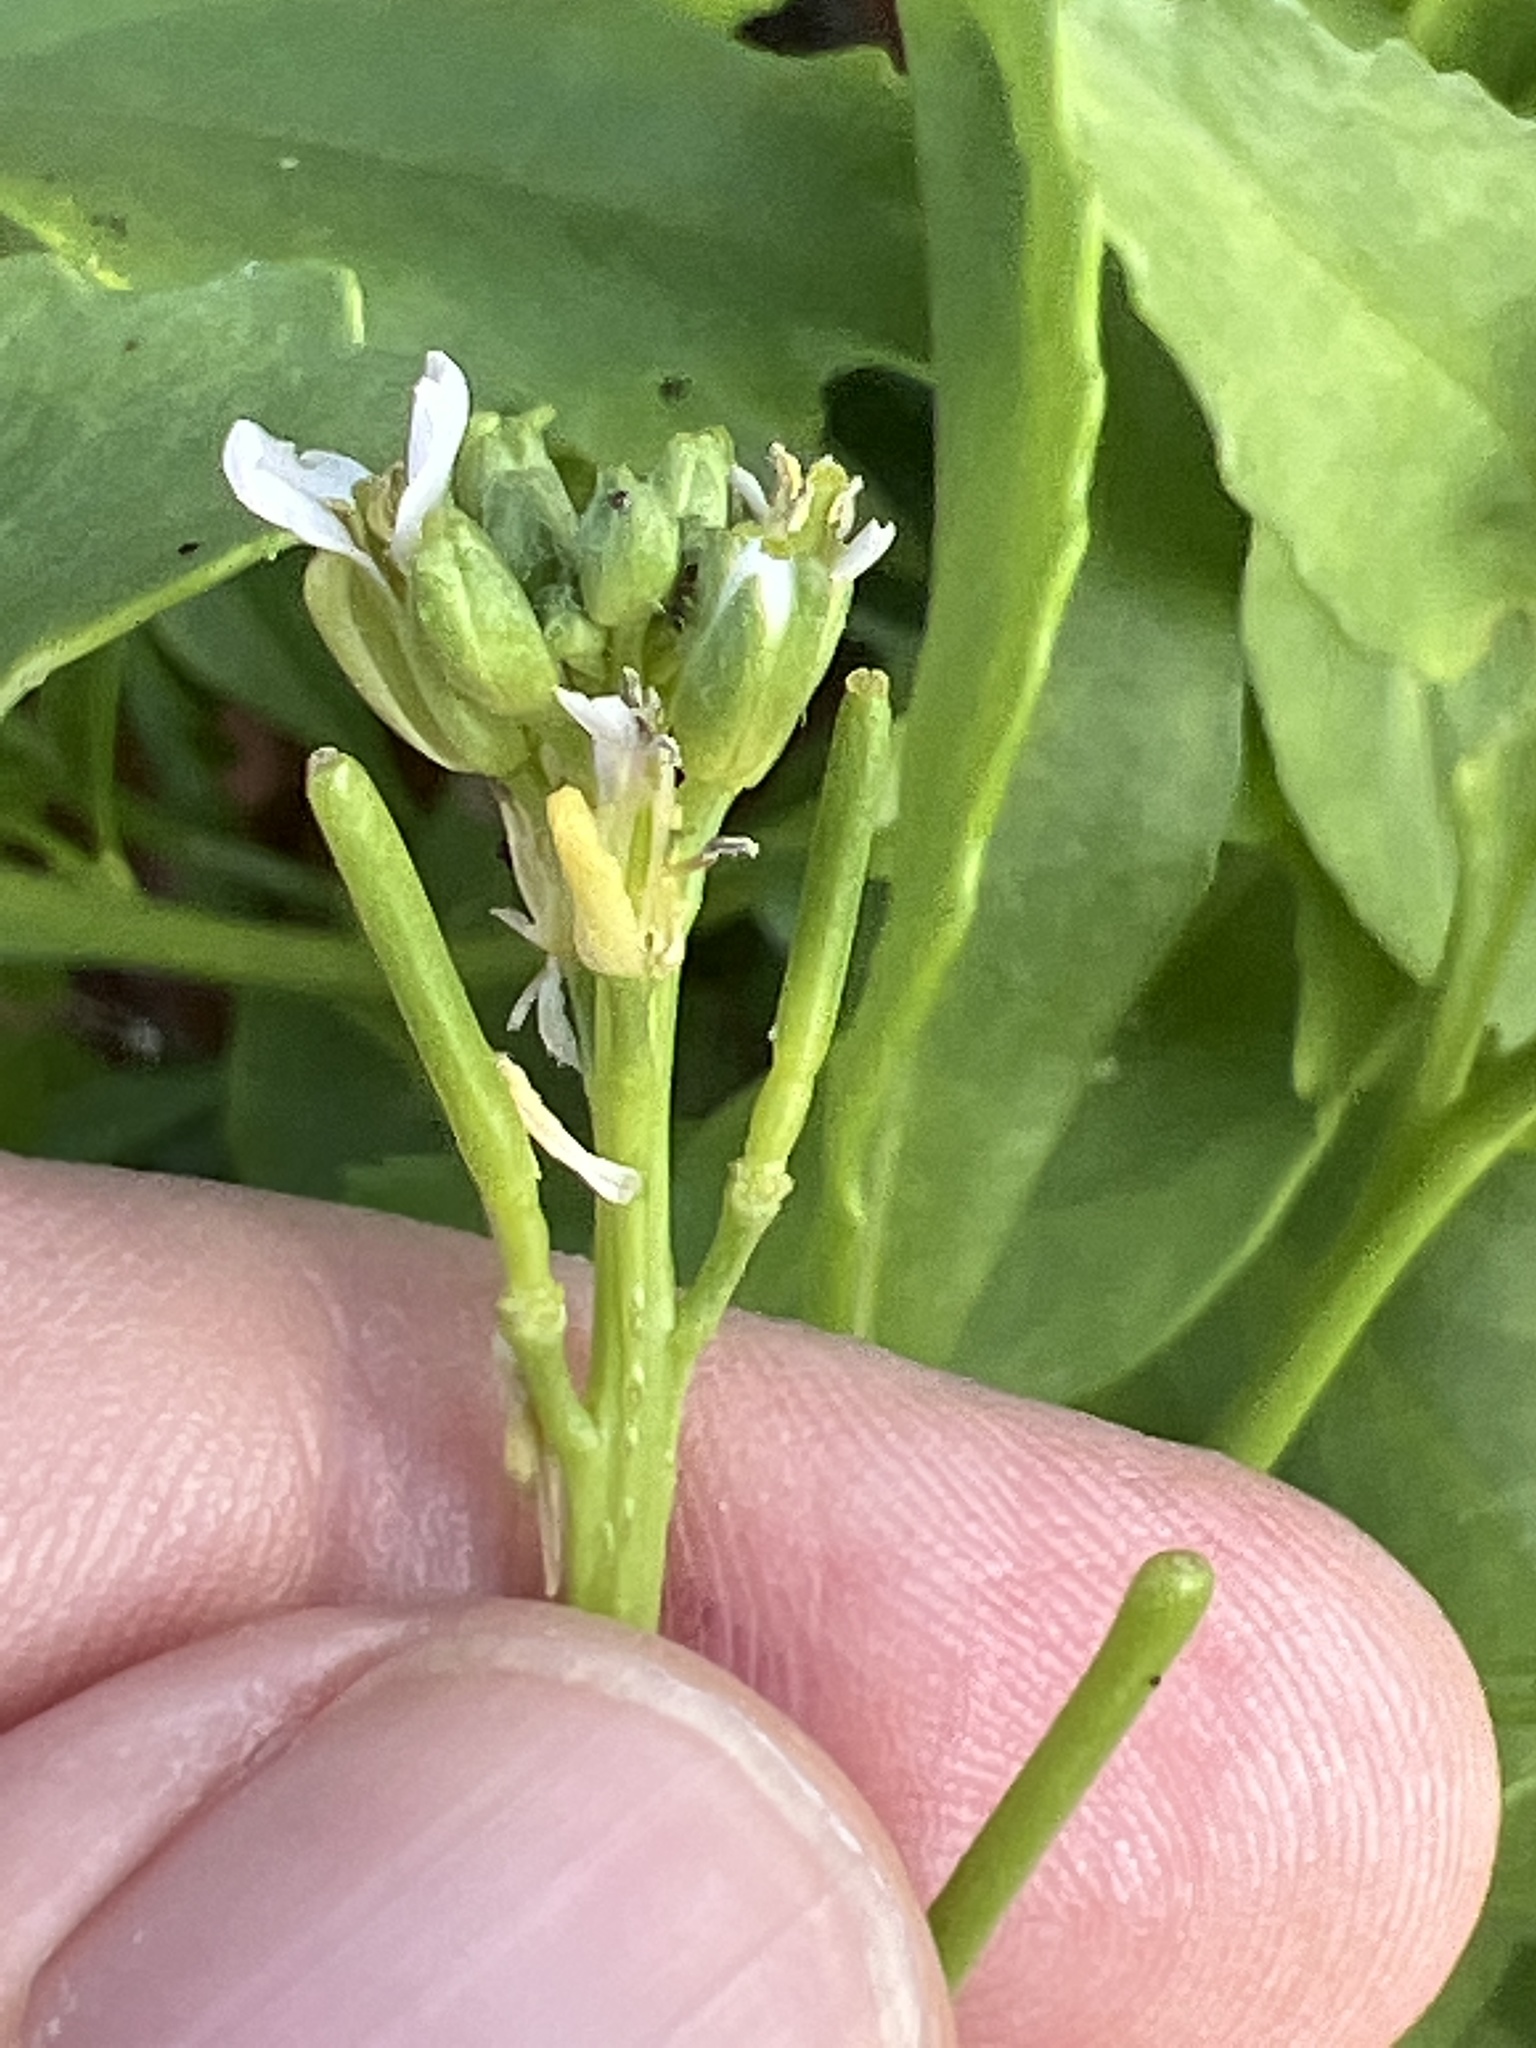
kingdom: Plantae
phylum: Tracheophyta
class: Magnoliopsida
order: Brassicales
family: Brassicaceae
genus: Cakile
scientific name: Cakile lanceolata
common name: Sea rocket
